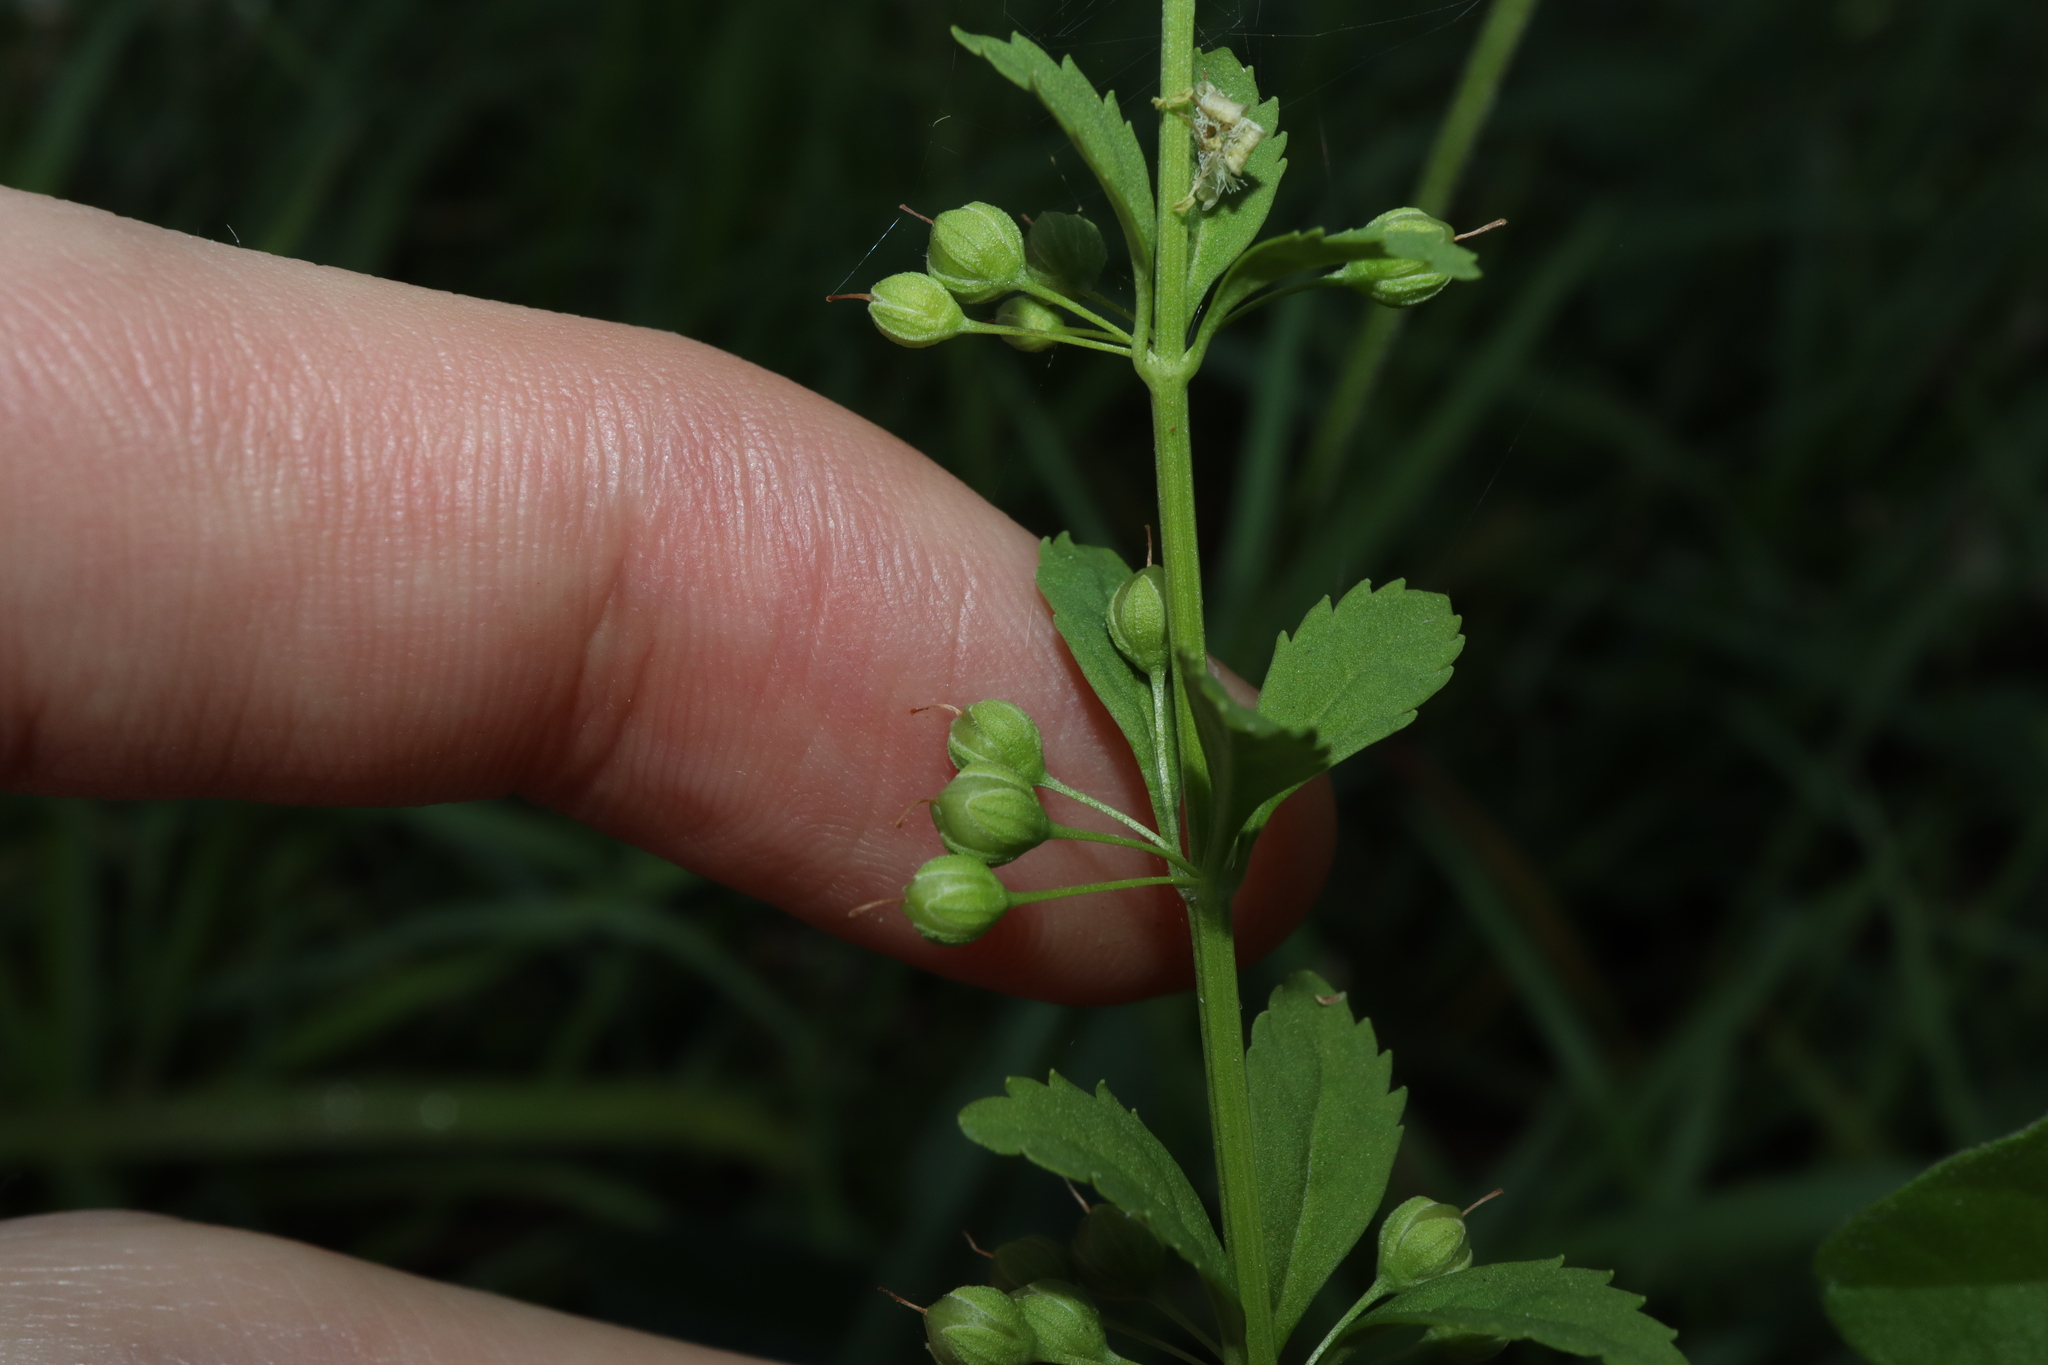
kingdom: Plantae
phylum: Tracheophyta
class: Magnoliopsida
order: Lamiales
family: Plantaginaceae
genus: Scoparia
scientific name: Scoparia dulcis
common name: Scoparia-weed
